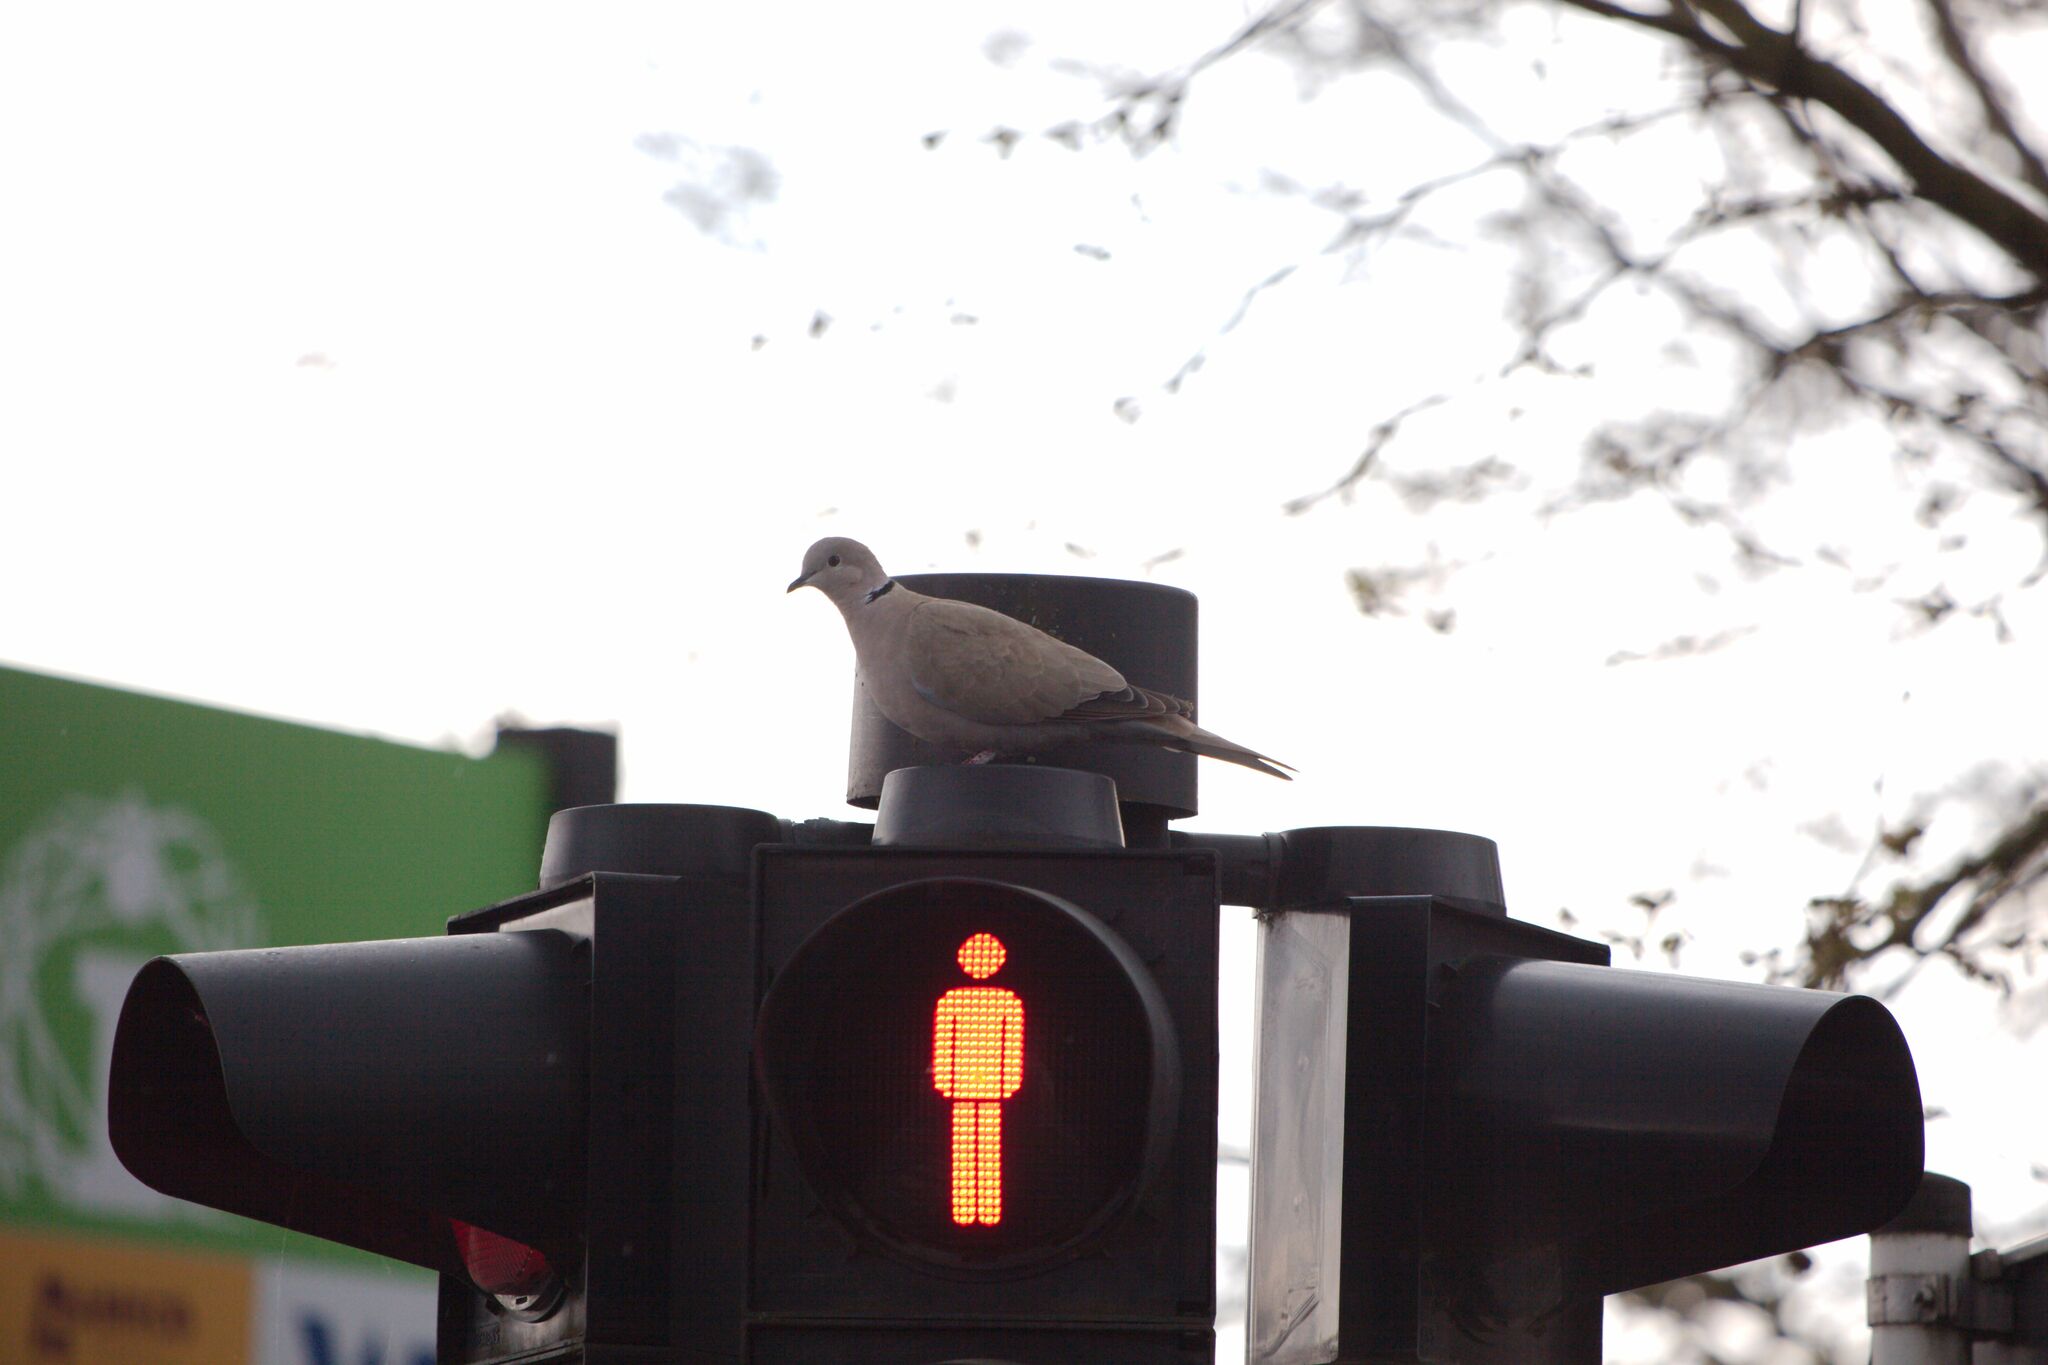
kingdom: Animalia
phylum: Chordata
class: Aves
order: Columbiformes
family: Columbidae
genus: Streptopelia
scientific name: Streptopelia decaocto
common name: Eurasian collared dove
